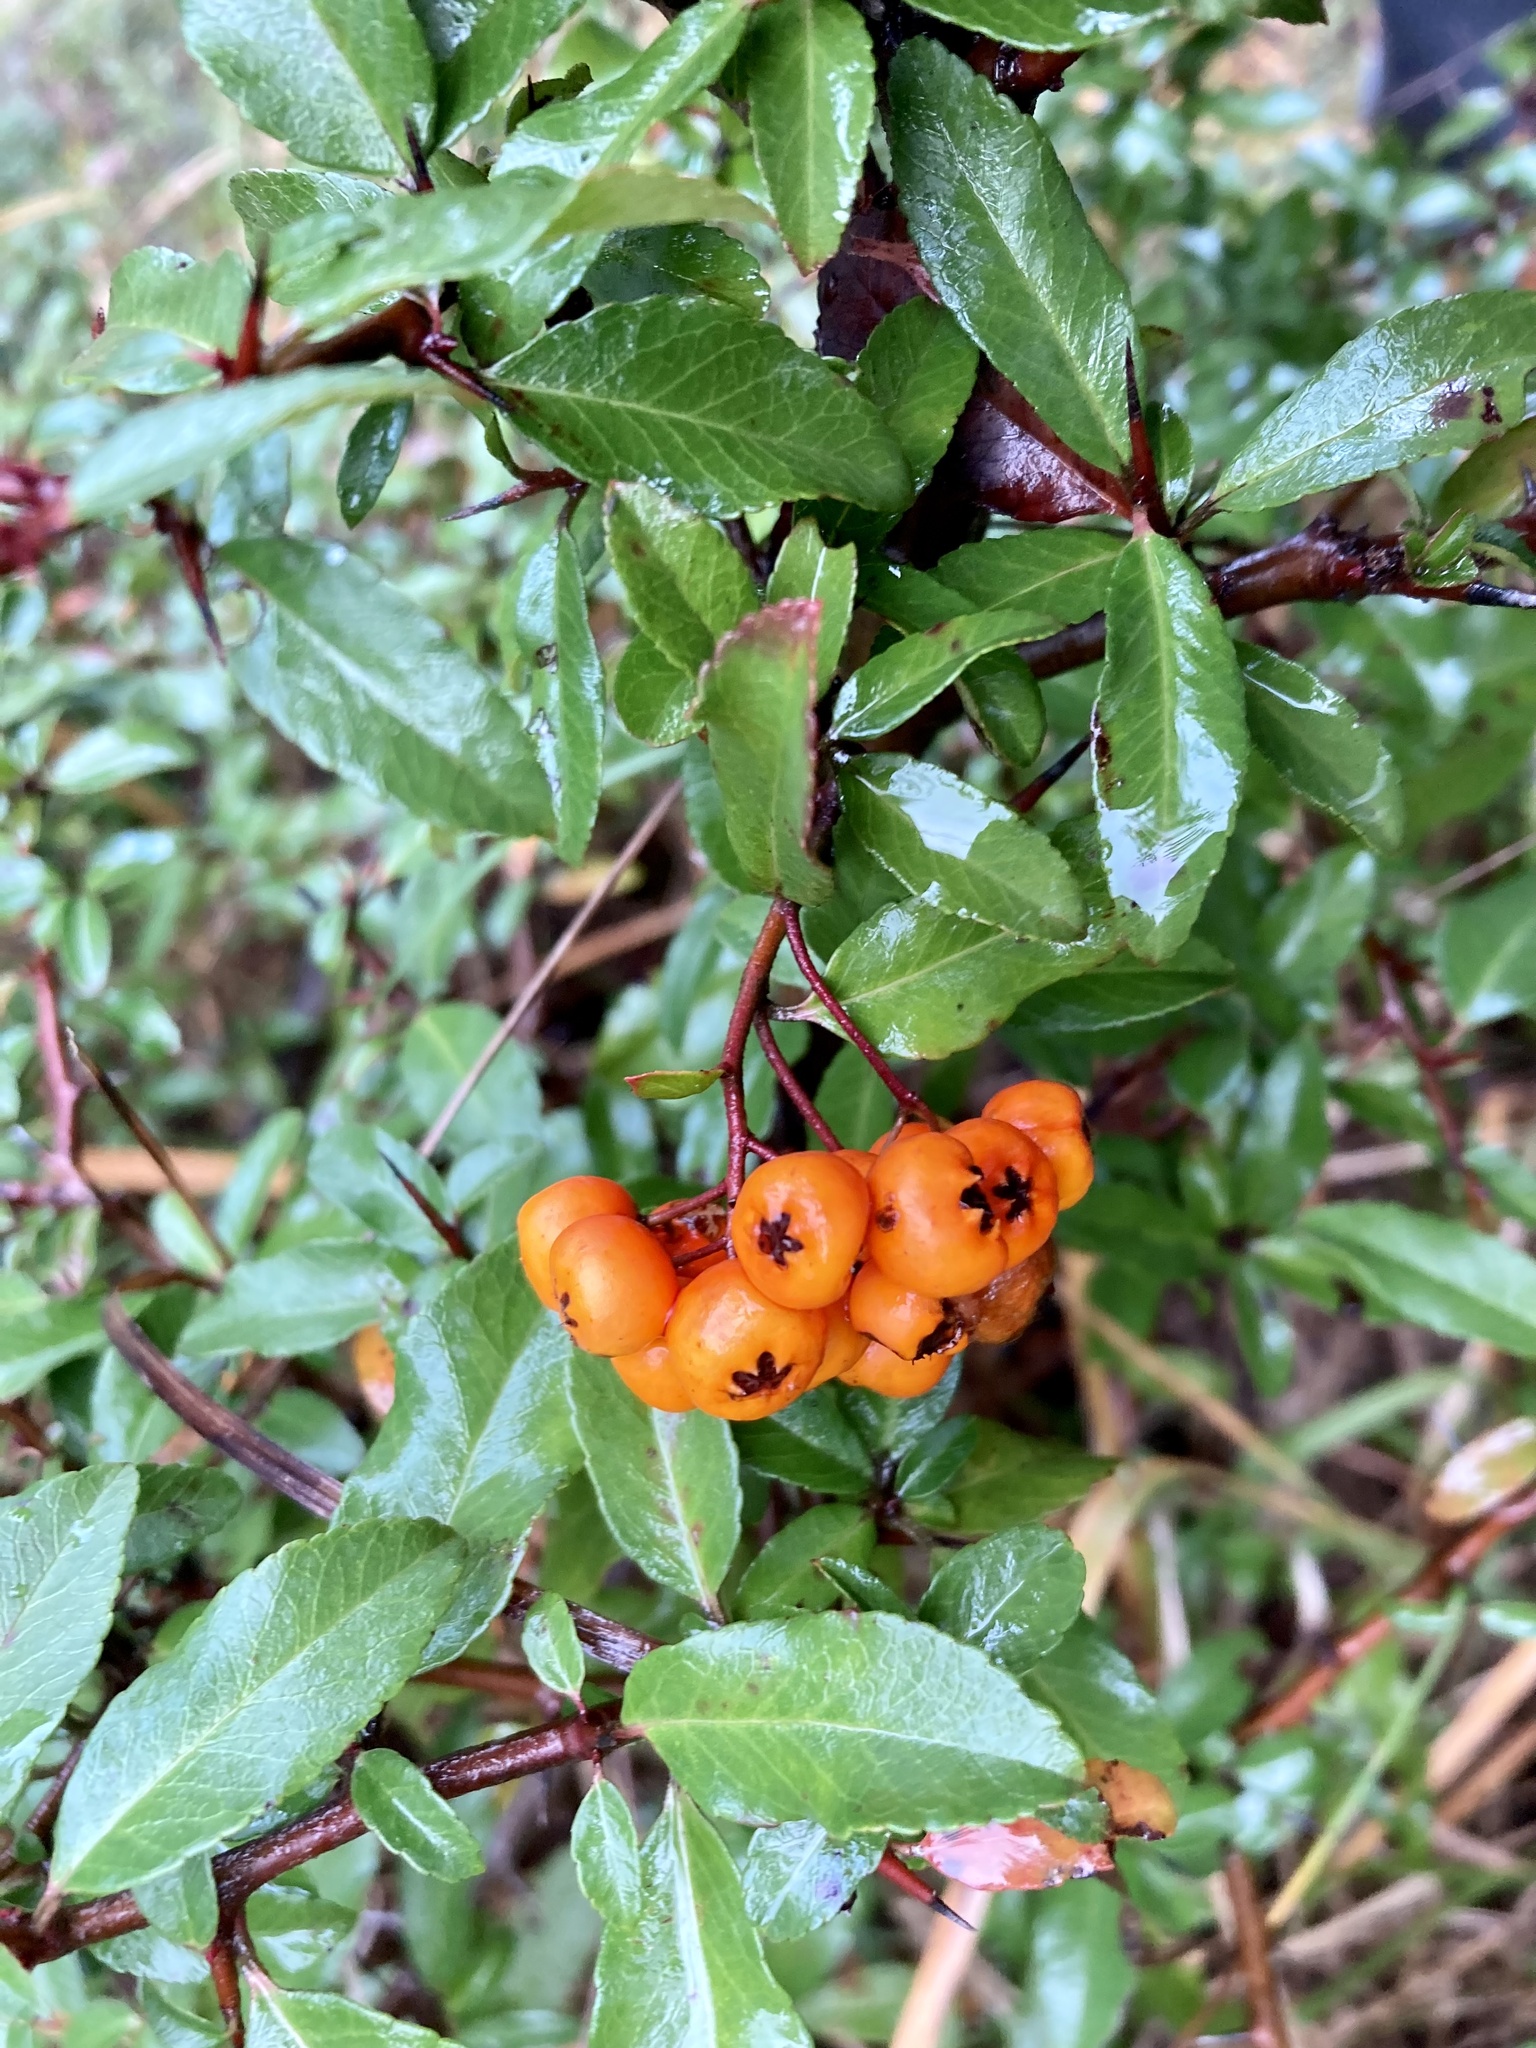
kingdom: Plantae
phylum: Tracheophyta
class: Magnoliopsida
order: Rosales
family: Rosaceae
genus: Pyracantha
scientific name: Pyracantha coccinea
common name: Firethorn
